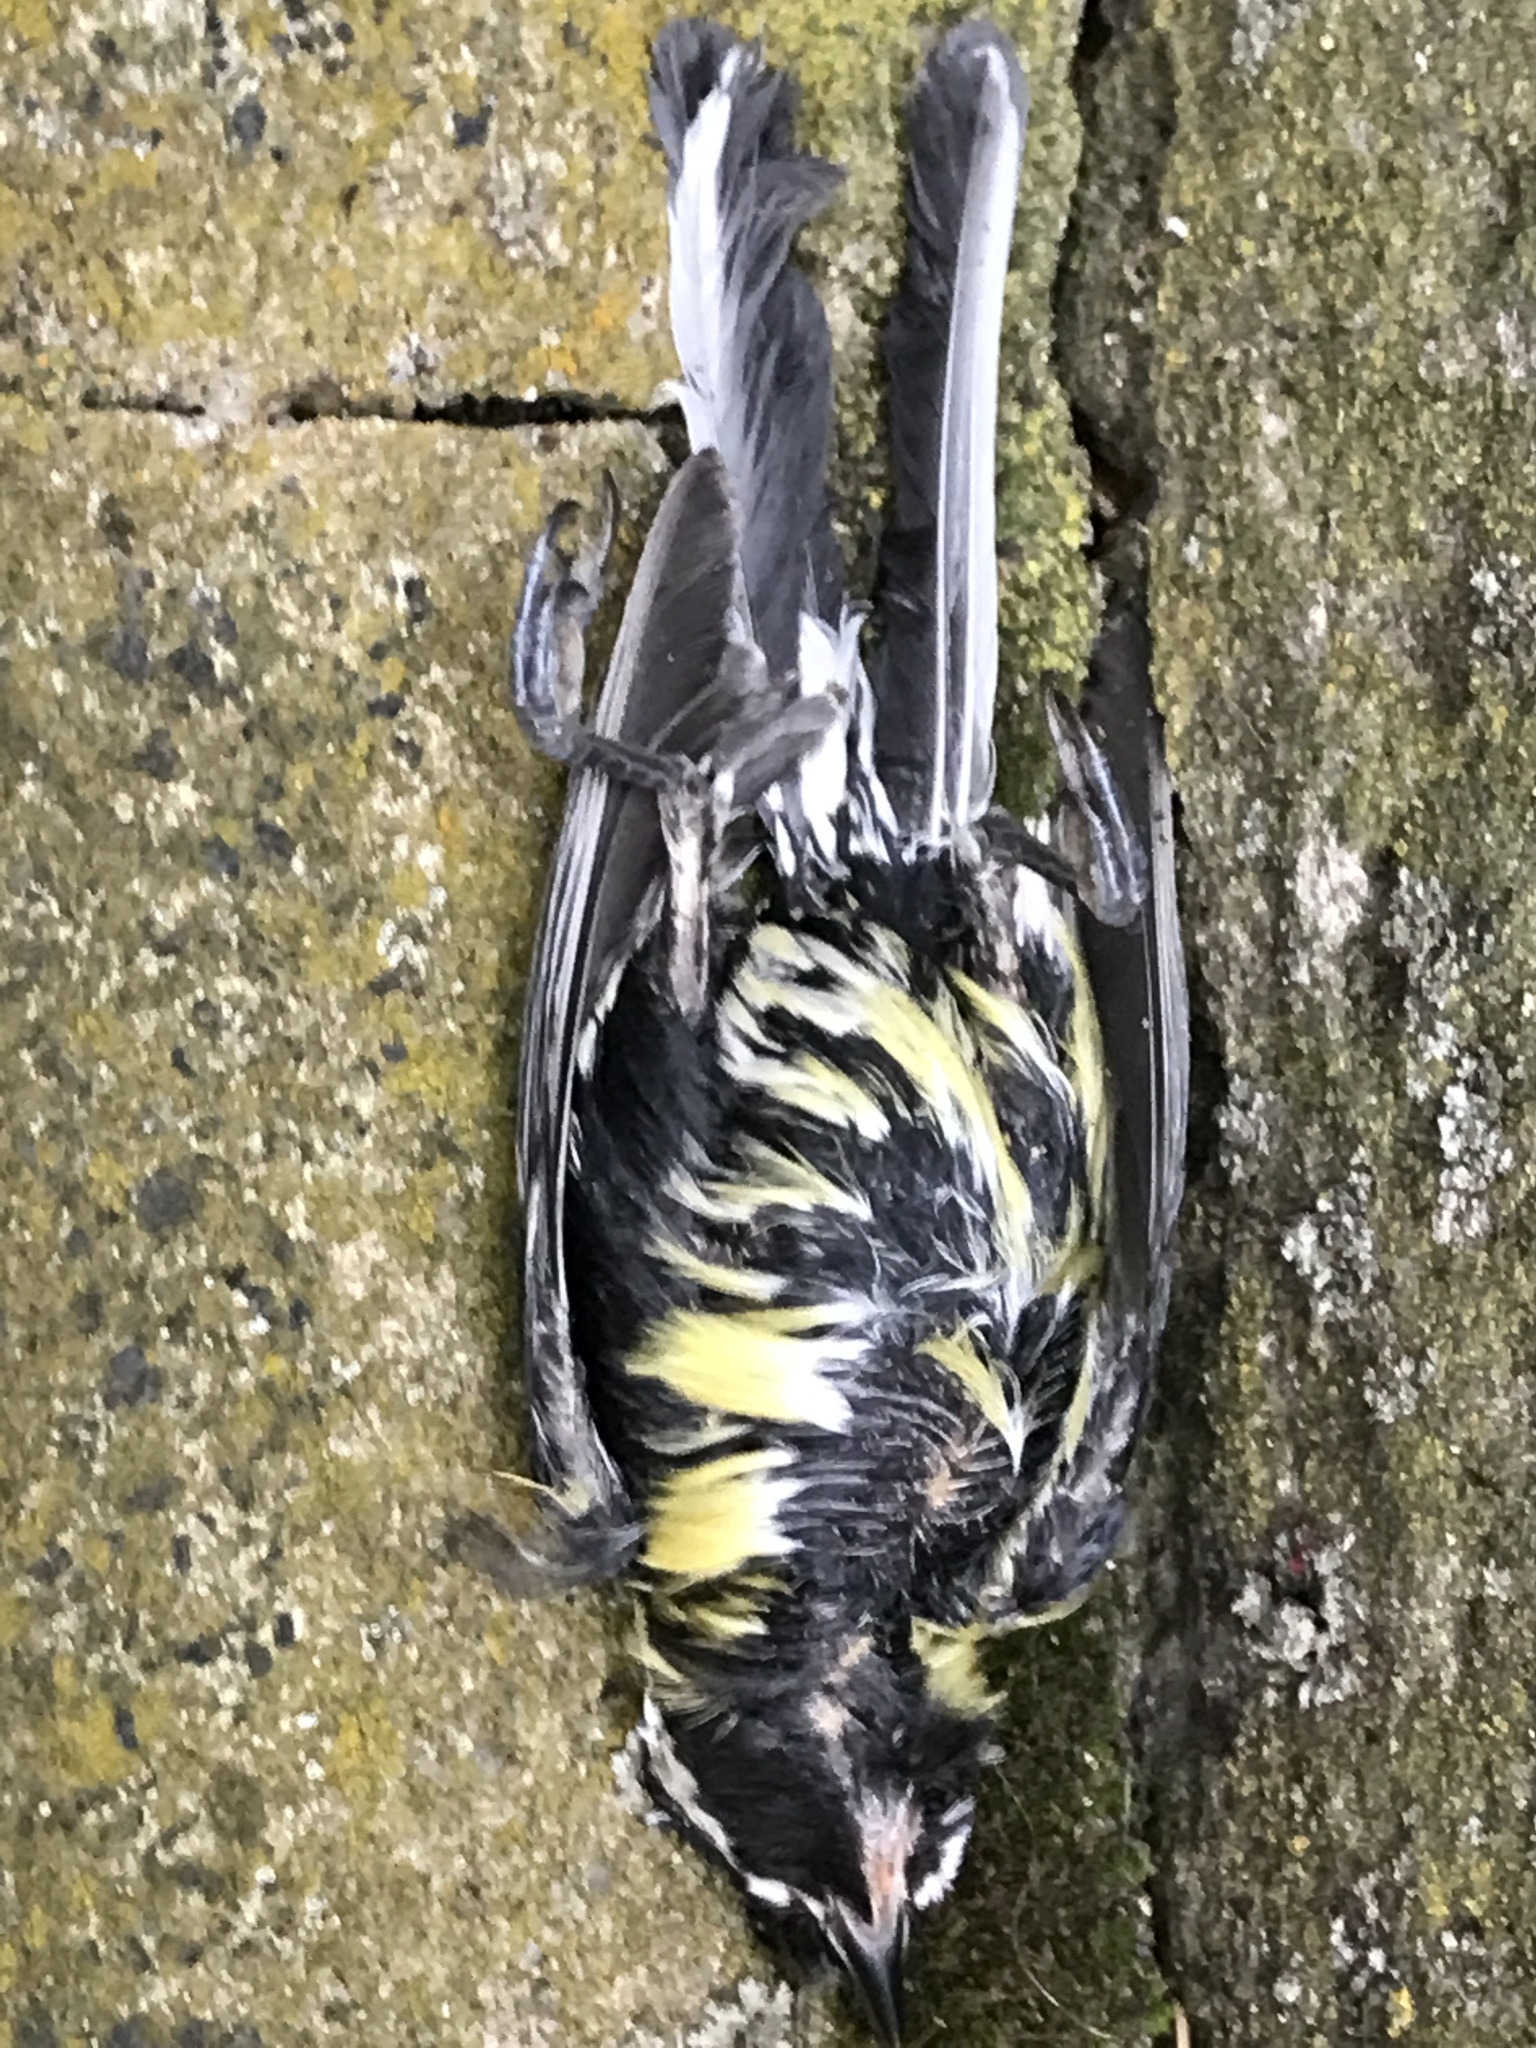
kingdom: Animalia
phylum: Chordata
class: Aves
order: Passeriformes
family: Paridae
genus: Parus
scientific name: Parus major
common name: Great tit
